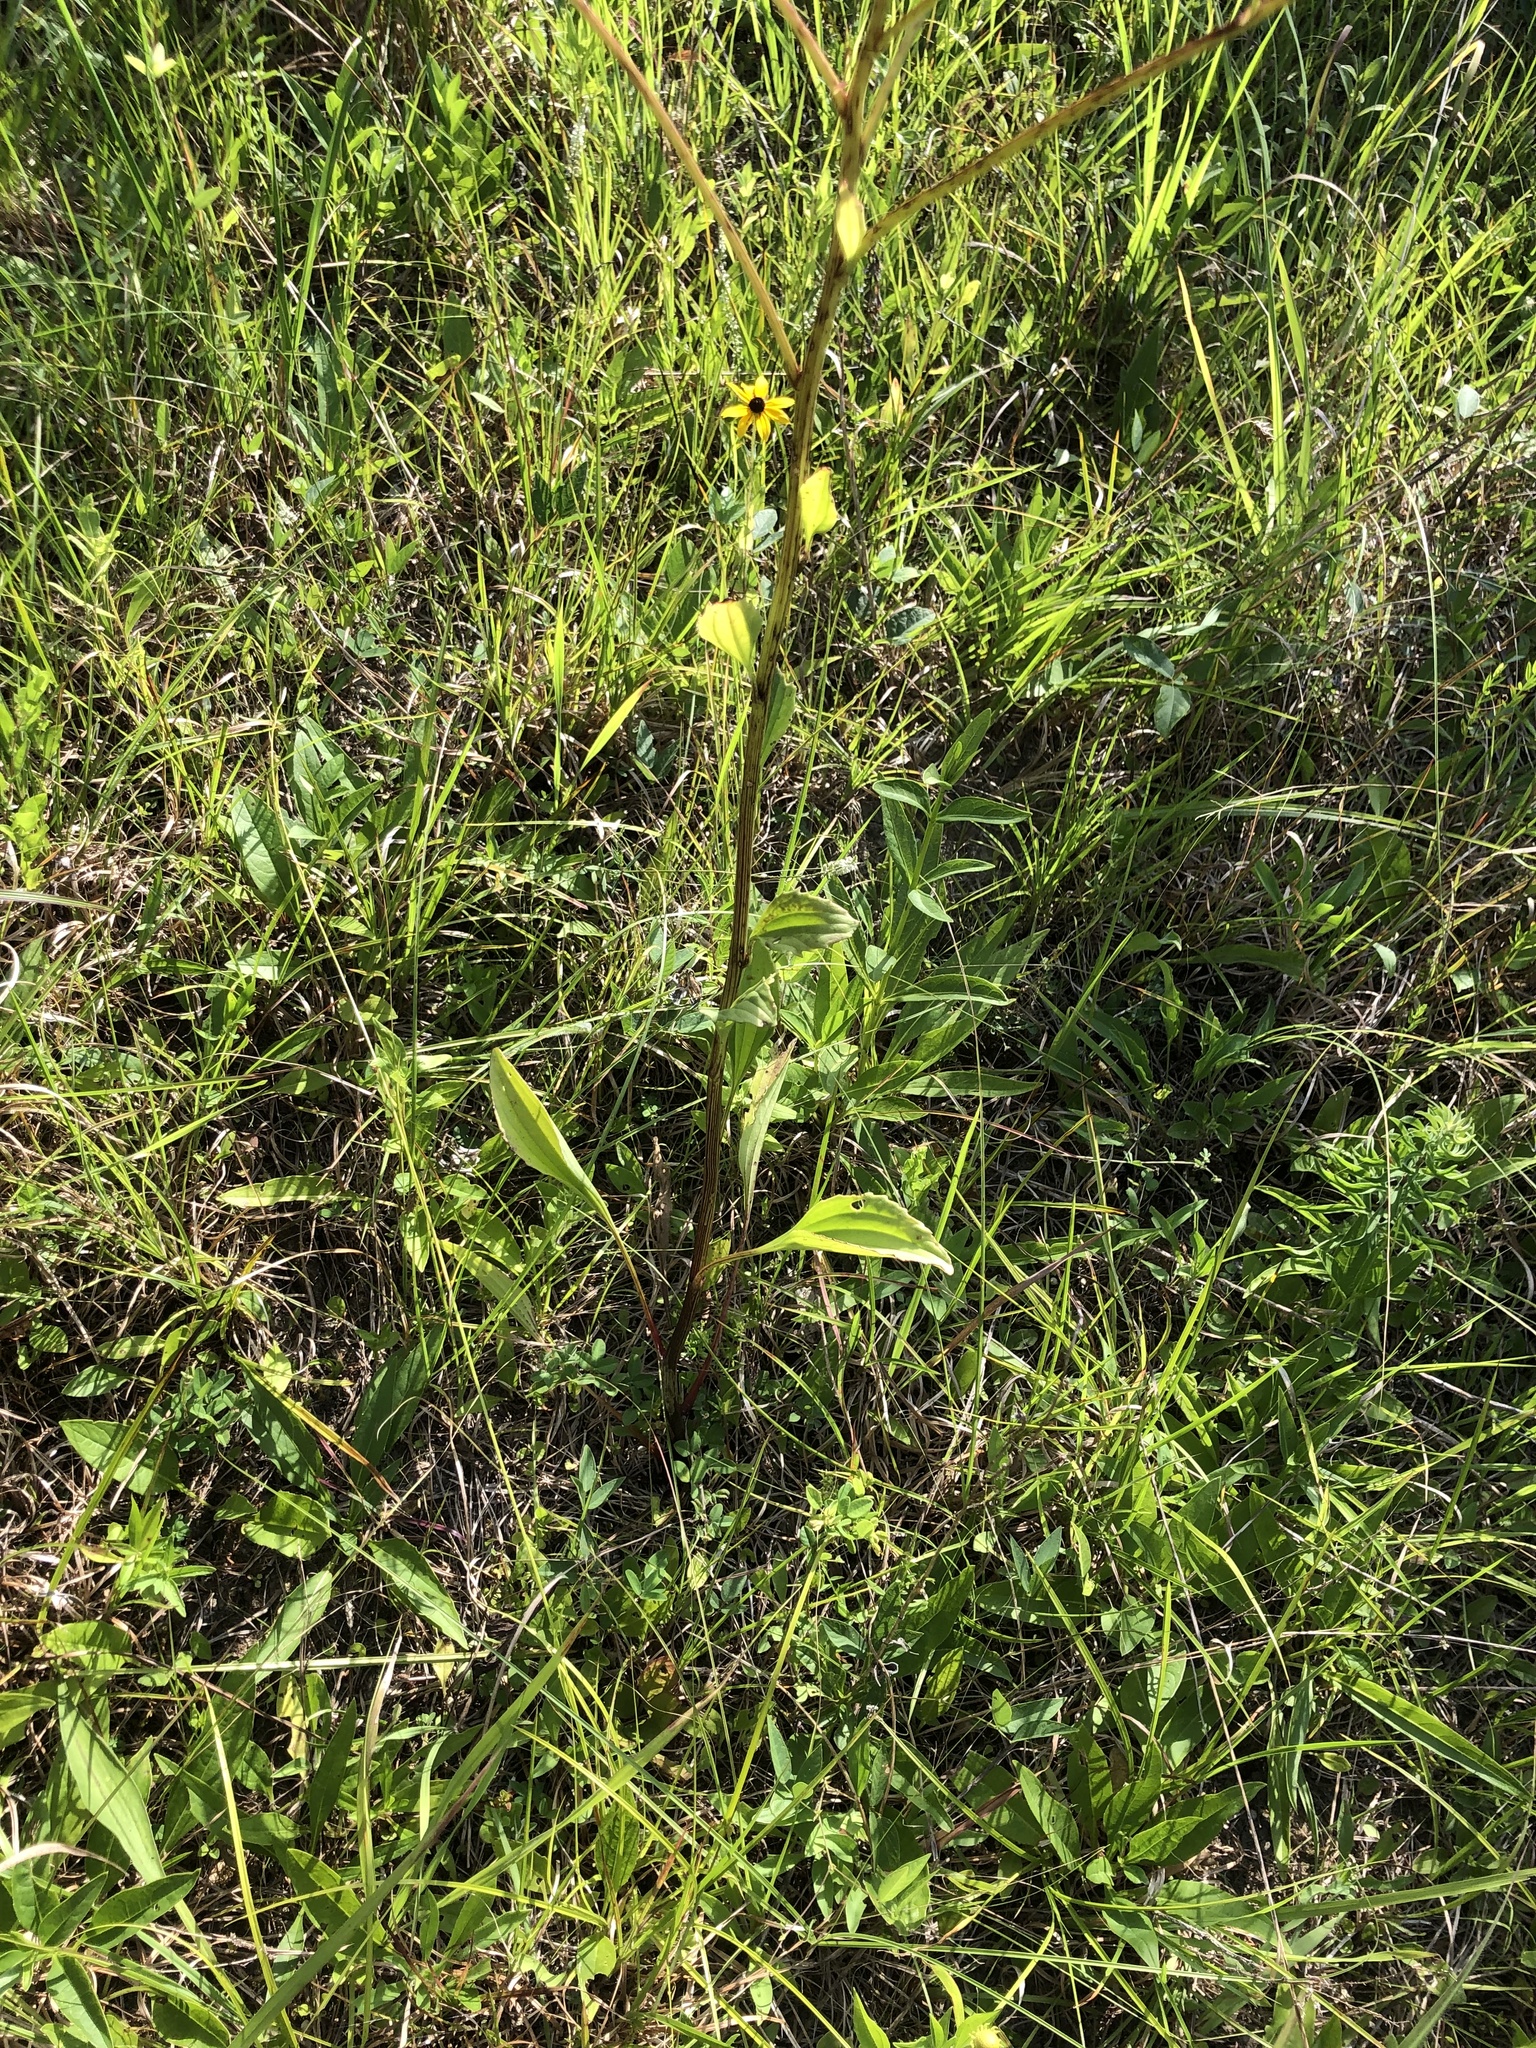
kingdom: Plantae
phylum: Tracheophyta
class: Magnoliopsida
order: Asterales
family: Asteraceae
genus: Arnoglossum
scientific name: Arnoglossum plantagineum
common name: Groove-stemmed indian-plantain
